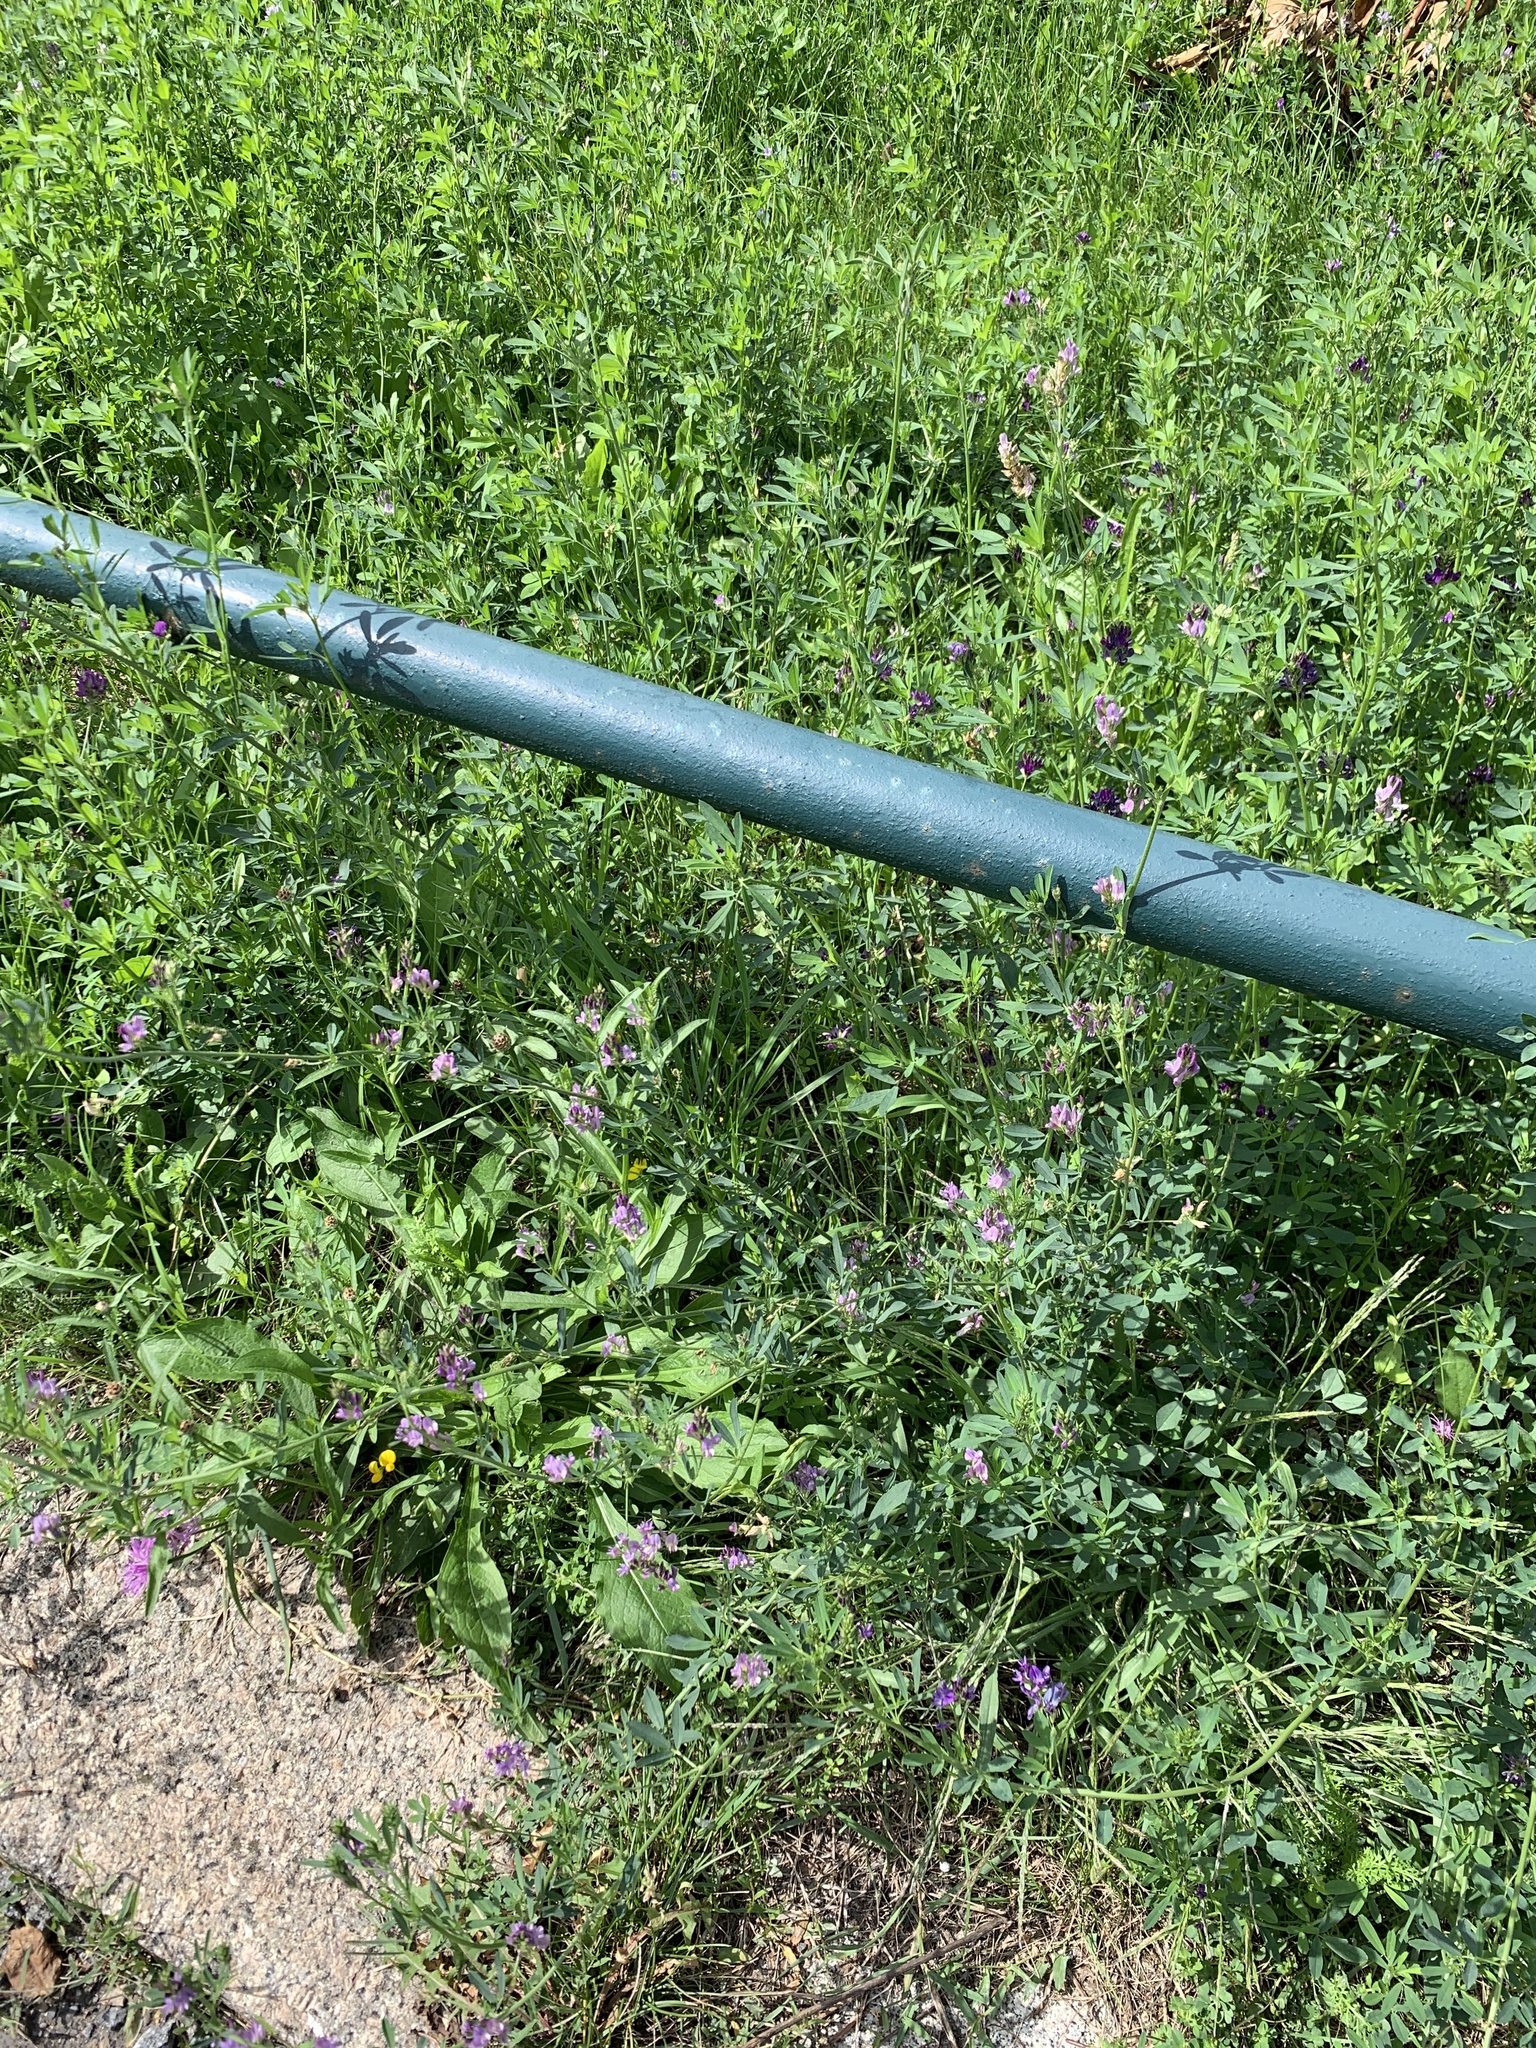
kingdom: Plantae
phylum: Tracheophyta
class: Magnoliopsida
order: Fabales
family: Fabaceae
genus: Medicago
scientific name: Medicago sativa
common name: Alfalfa
